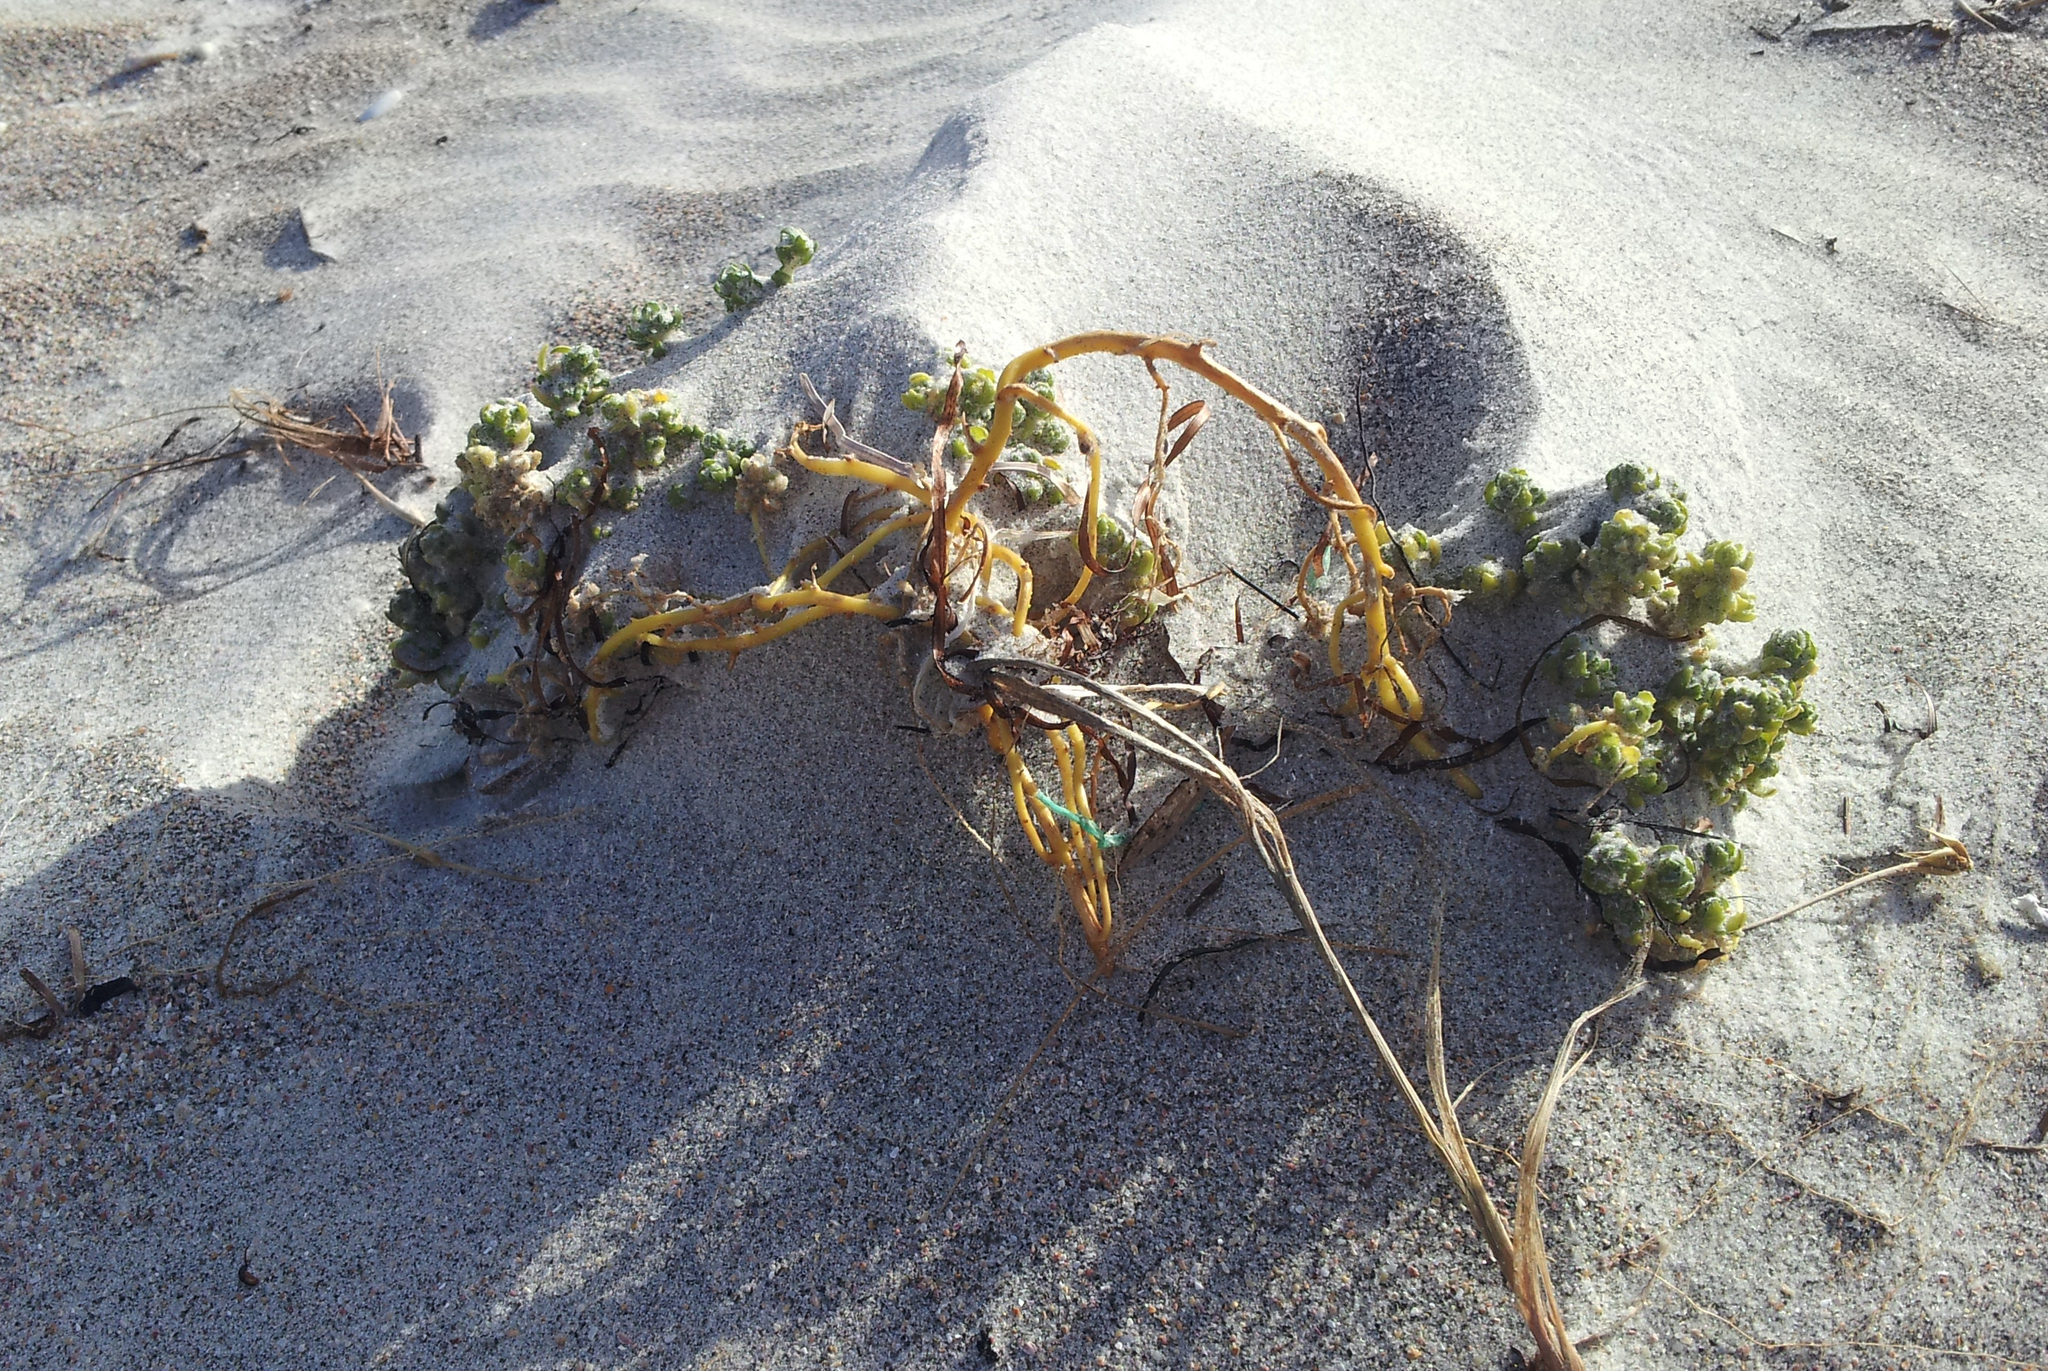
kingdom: Plantae
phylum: Tracheophyta
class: Magnoliopsida
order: Caryophyllales
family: Amaranthaceae
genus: Atriplex
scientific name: Atriplex hollowayi
